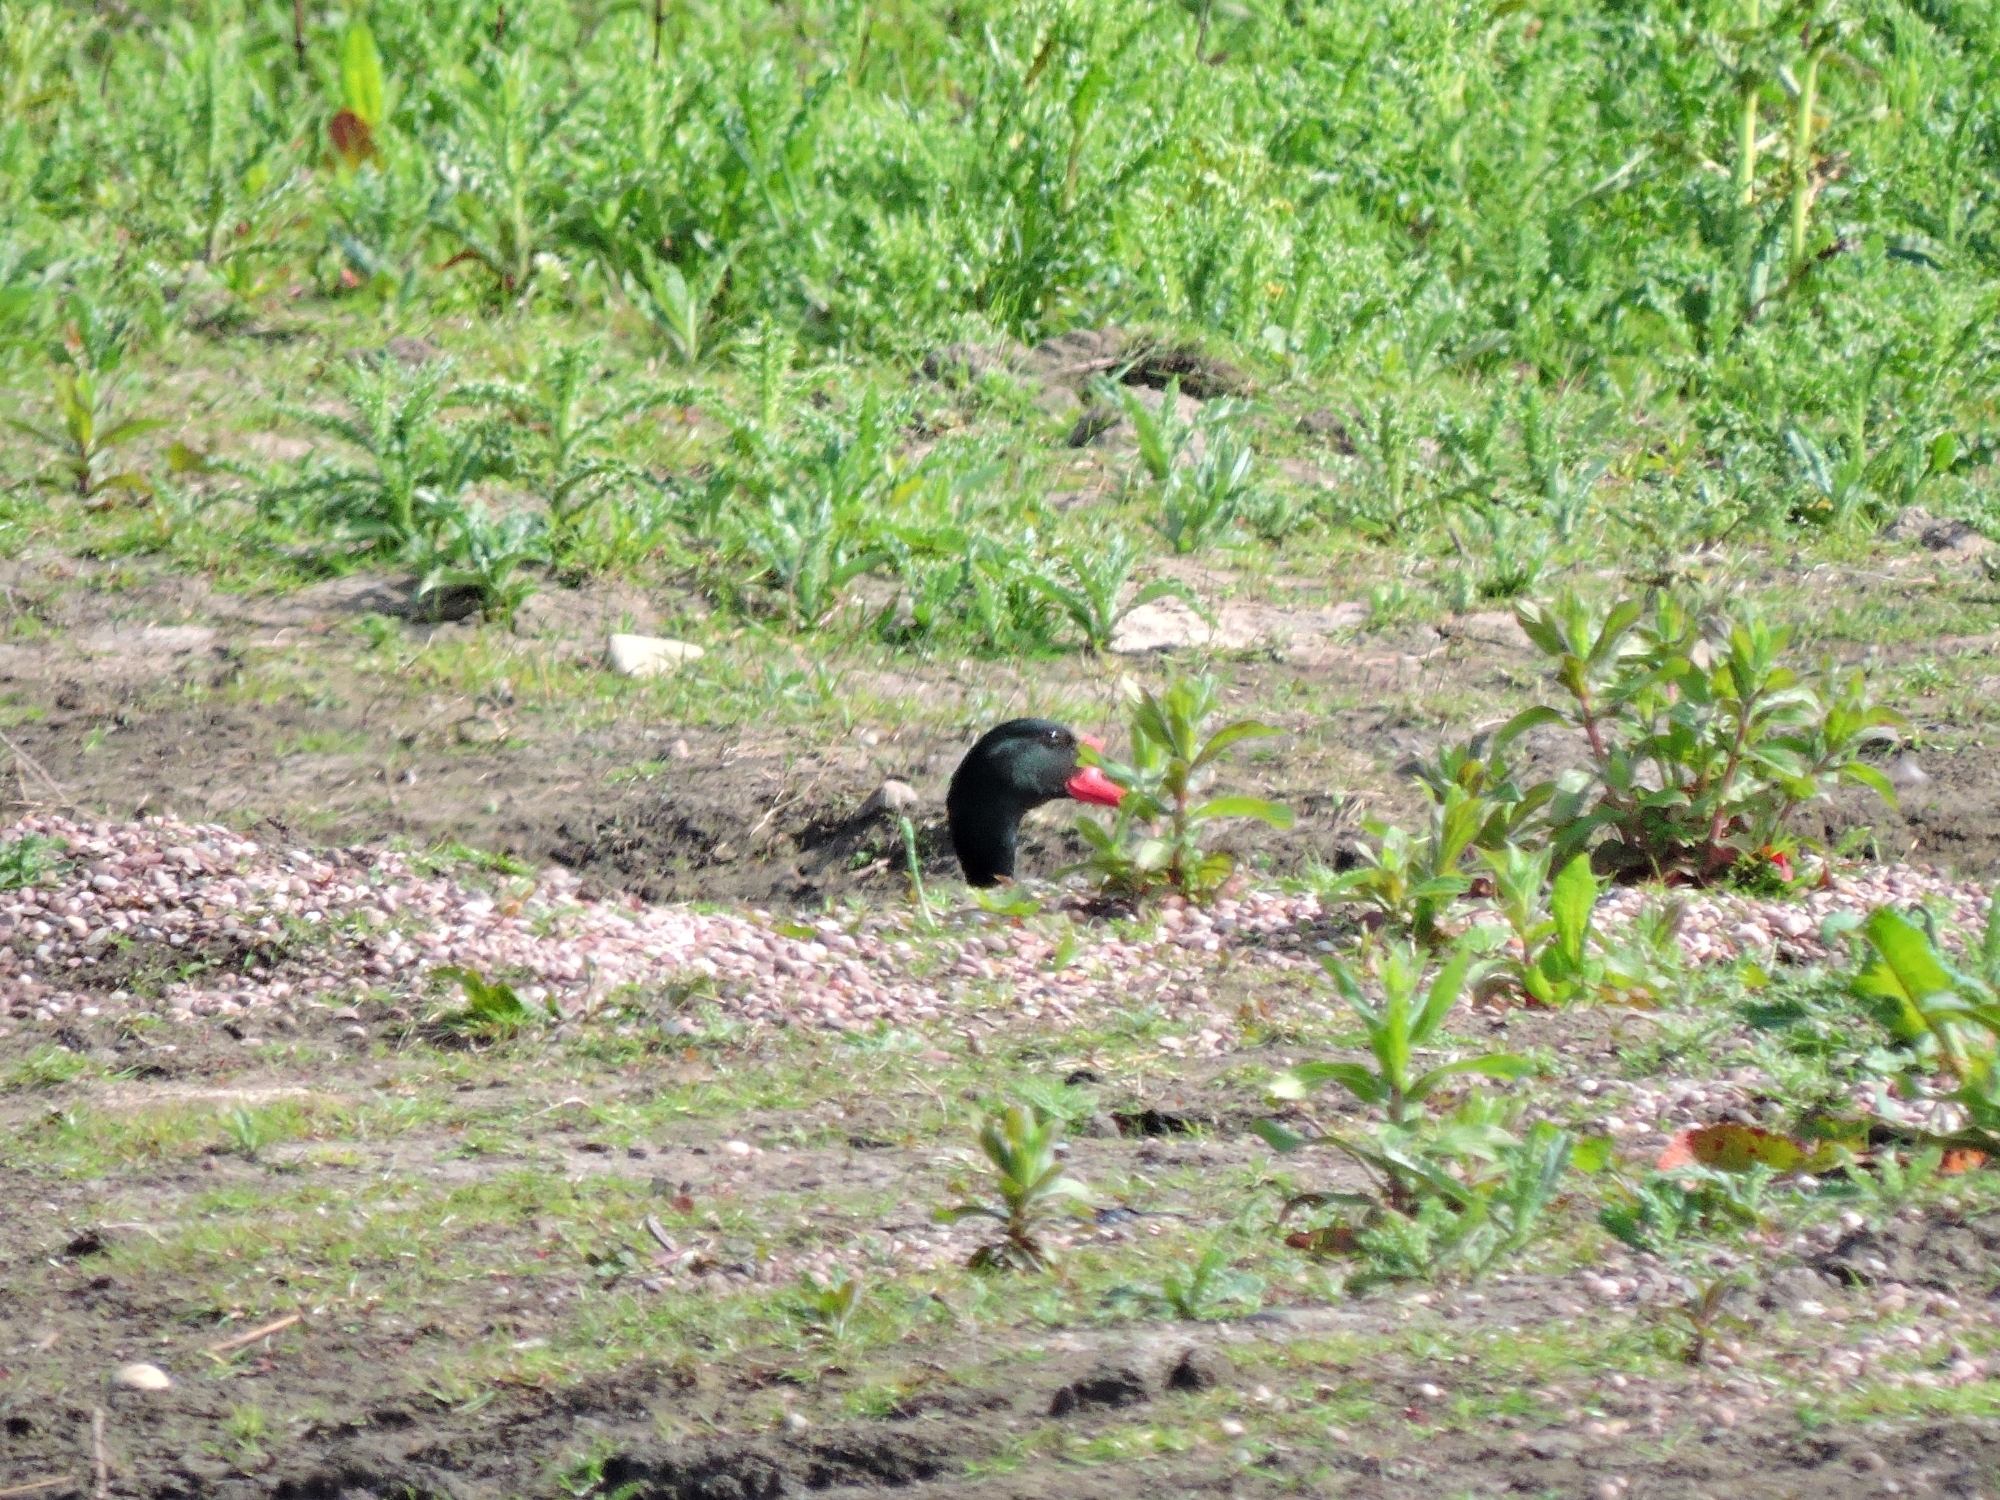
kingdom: Animalia
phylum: Chordata
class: Aves
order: Anseriformes
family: Anatidae
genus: Tadorna
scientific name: Tadorna tadorna
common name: Common shelduck
